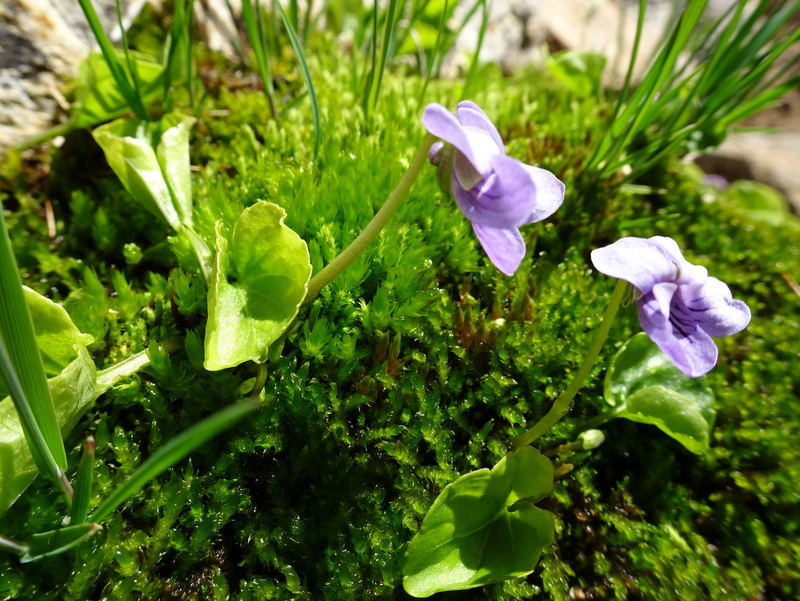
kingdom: Plantae
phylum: Tracheophyta
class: Magnoliopsida
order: Malpighiales
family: Violaceae
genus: Viola
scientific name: Viola palustris
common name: Marsh violet
